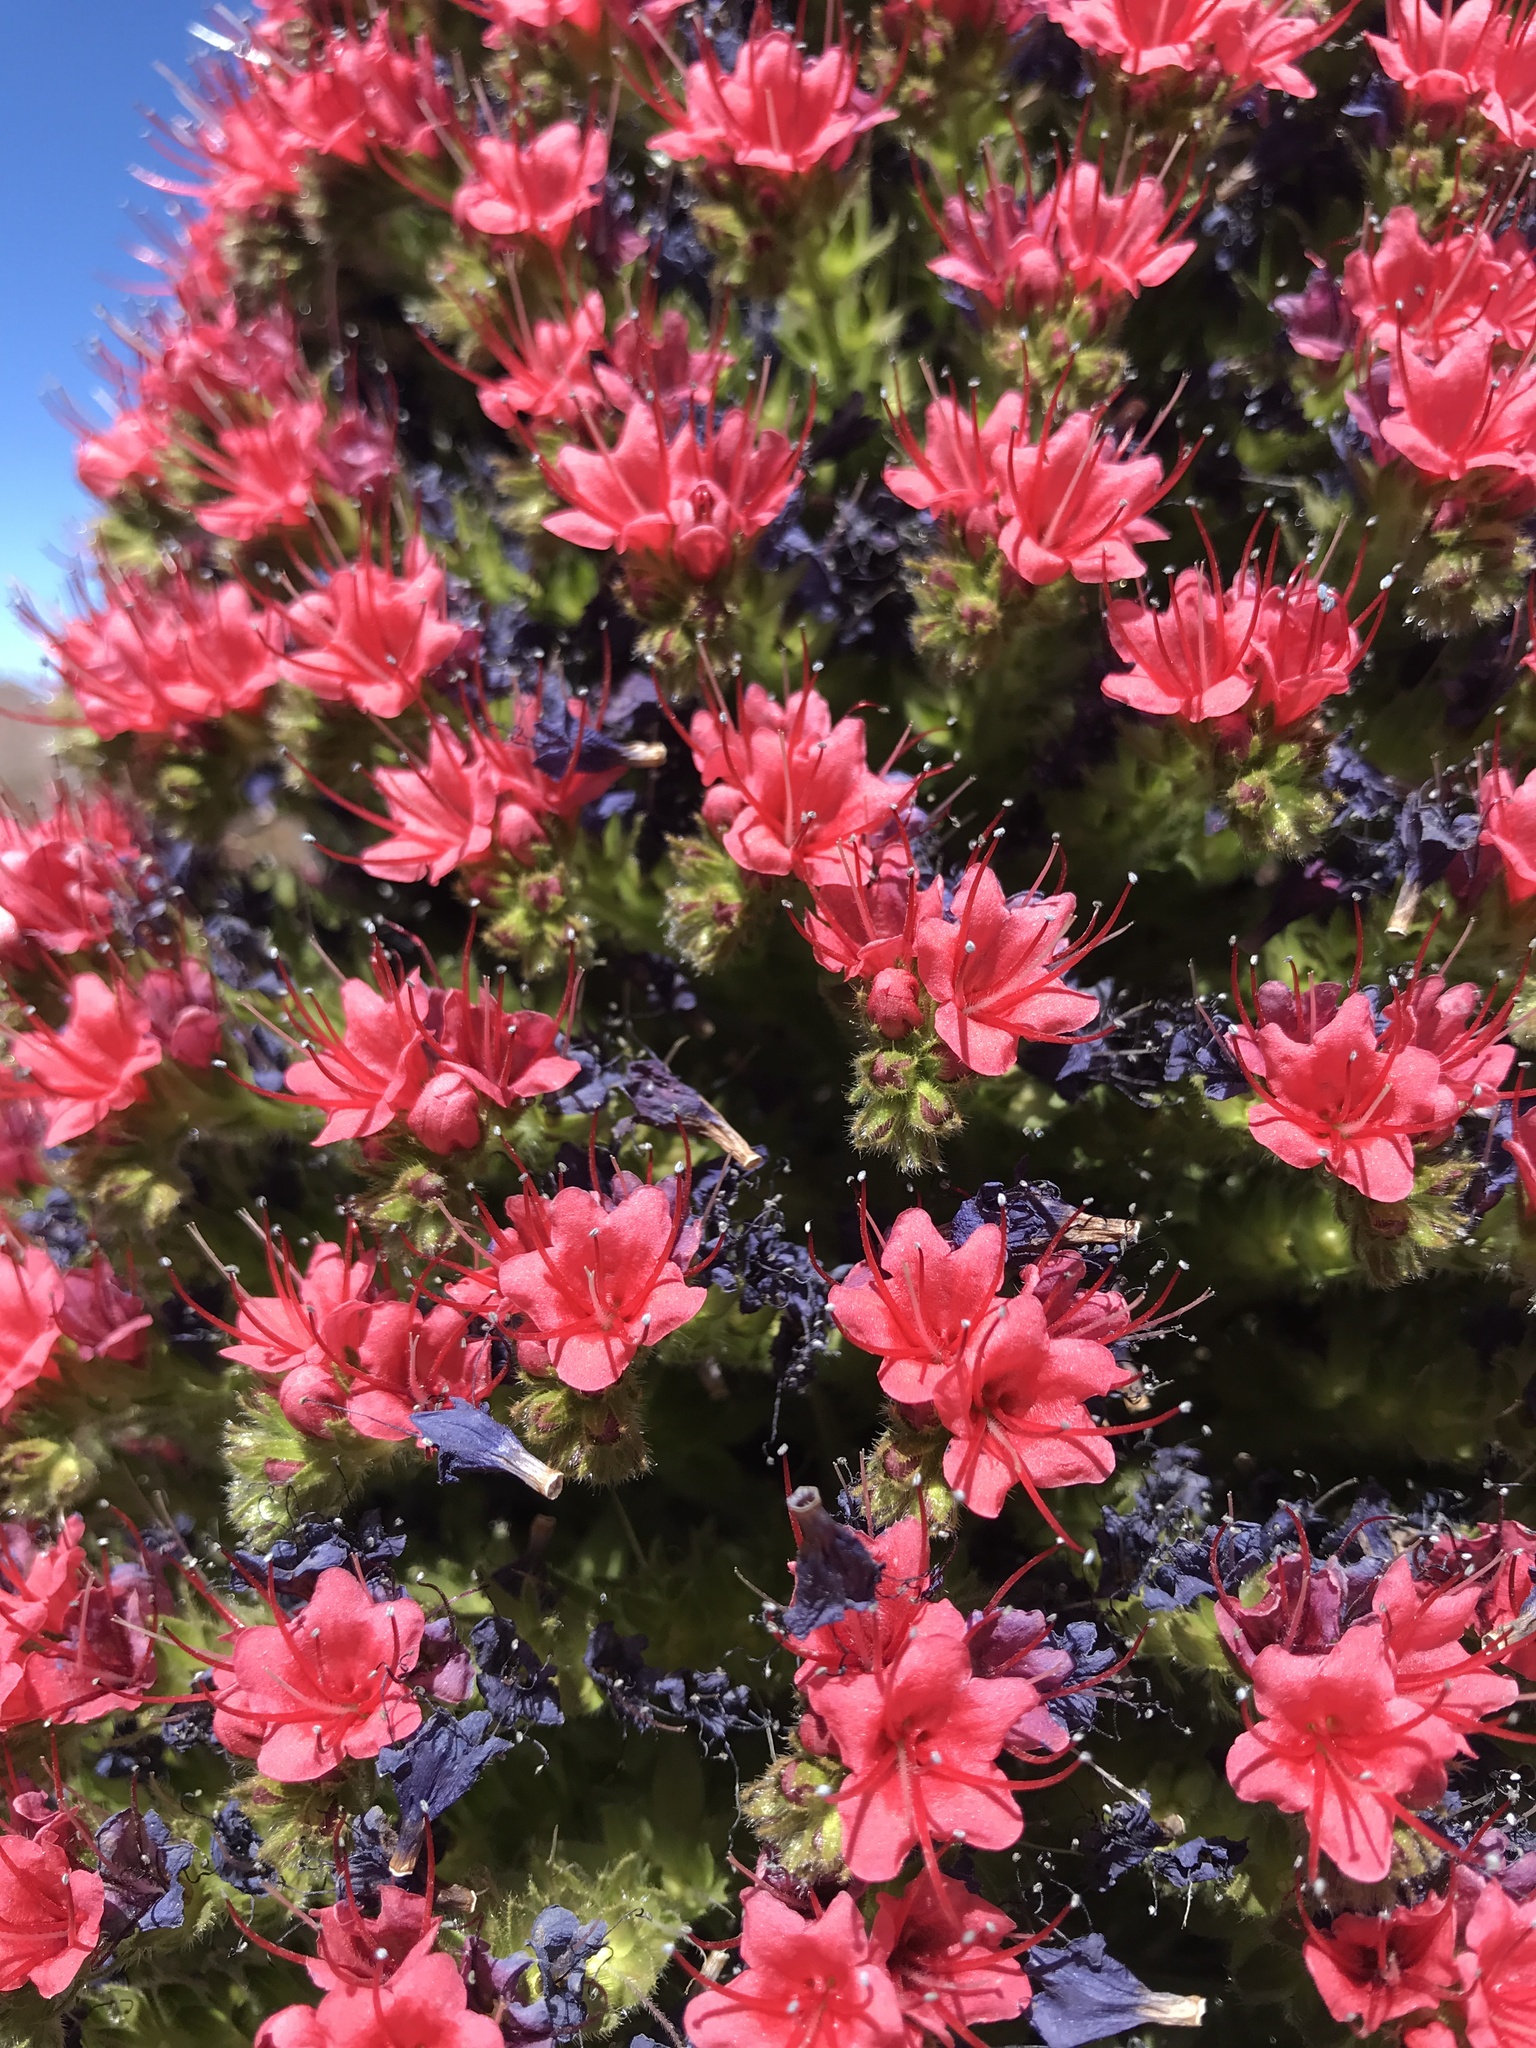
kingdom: Plantae
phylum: Tracheophyta
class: Magnoliopsida
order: Boraginales
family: Boraginaceae
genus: Echium
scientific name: Echium wildpretii
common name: Tower-of-jewels
